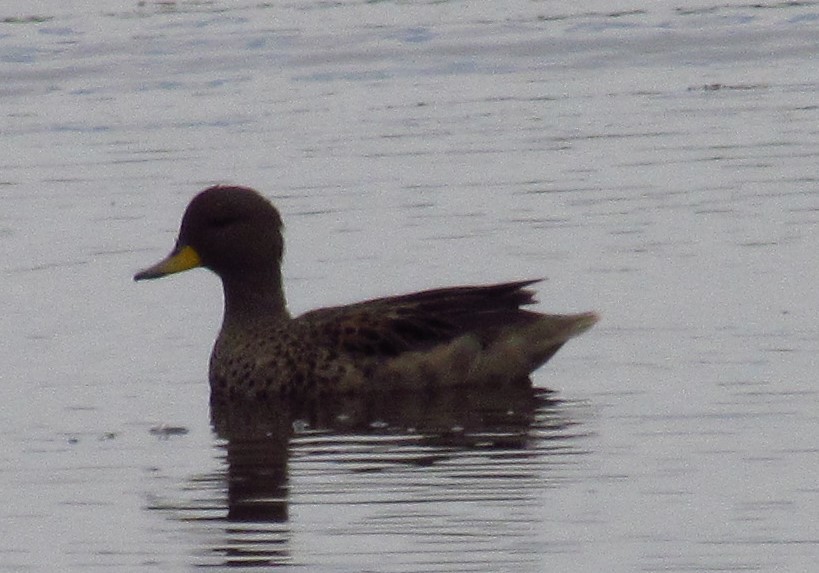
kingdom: Animalia
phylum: Chordata
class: Aves
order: Anseriformes
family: Anatidae
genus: Anas
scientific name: Anas flavirostris
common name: Yellow-billed teal
